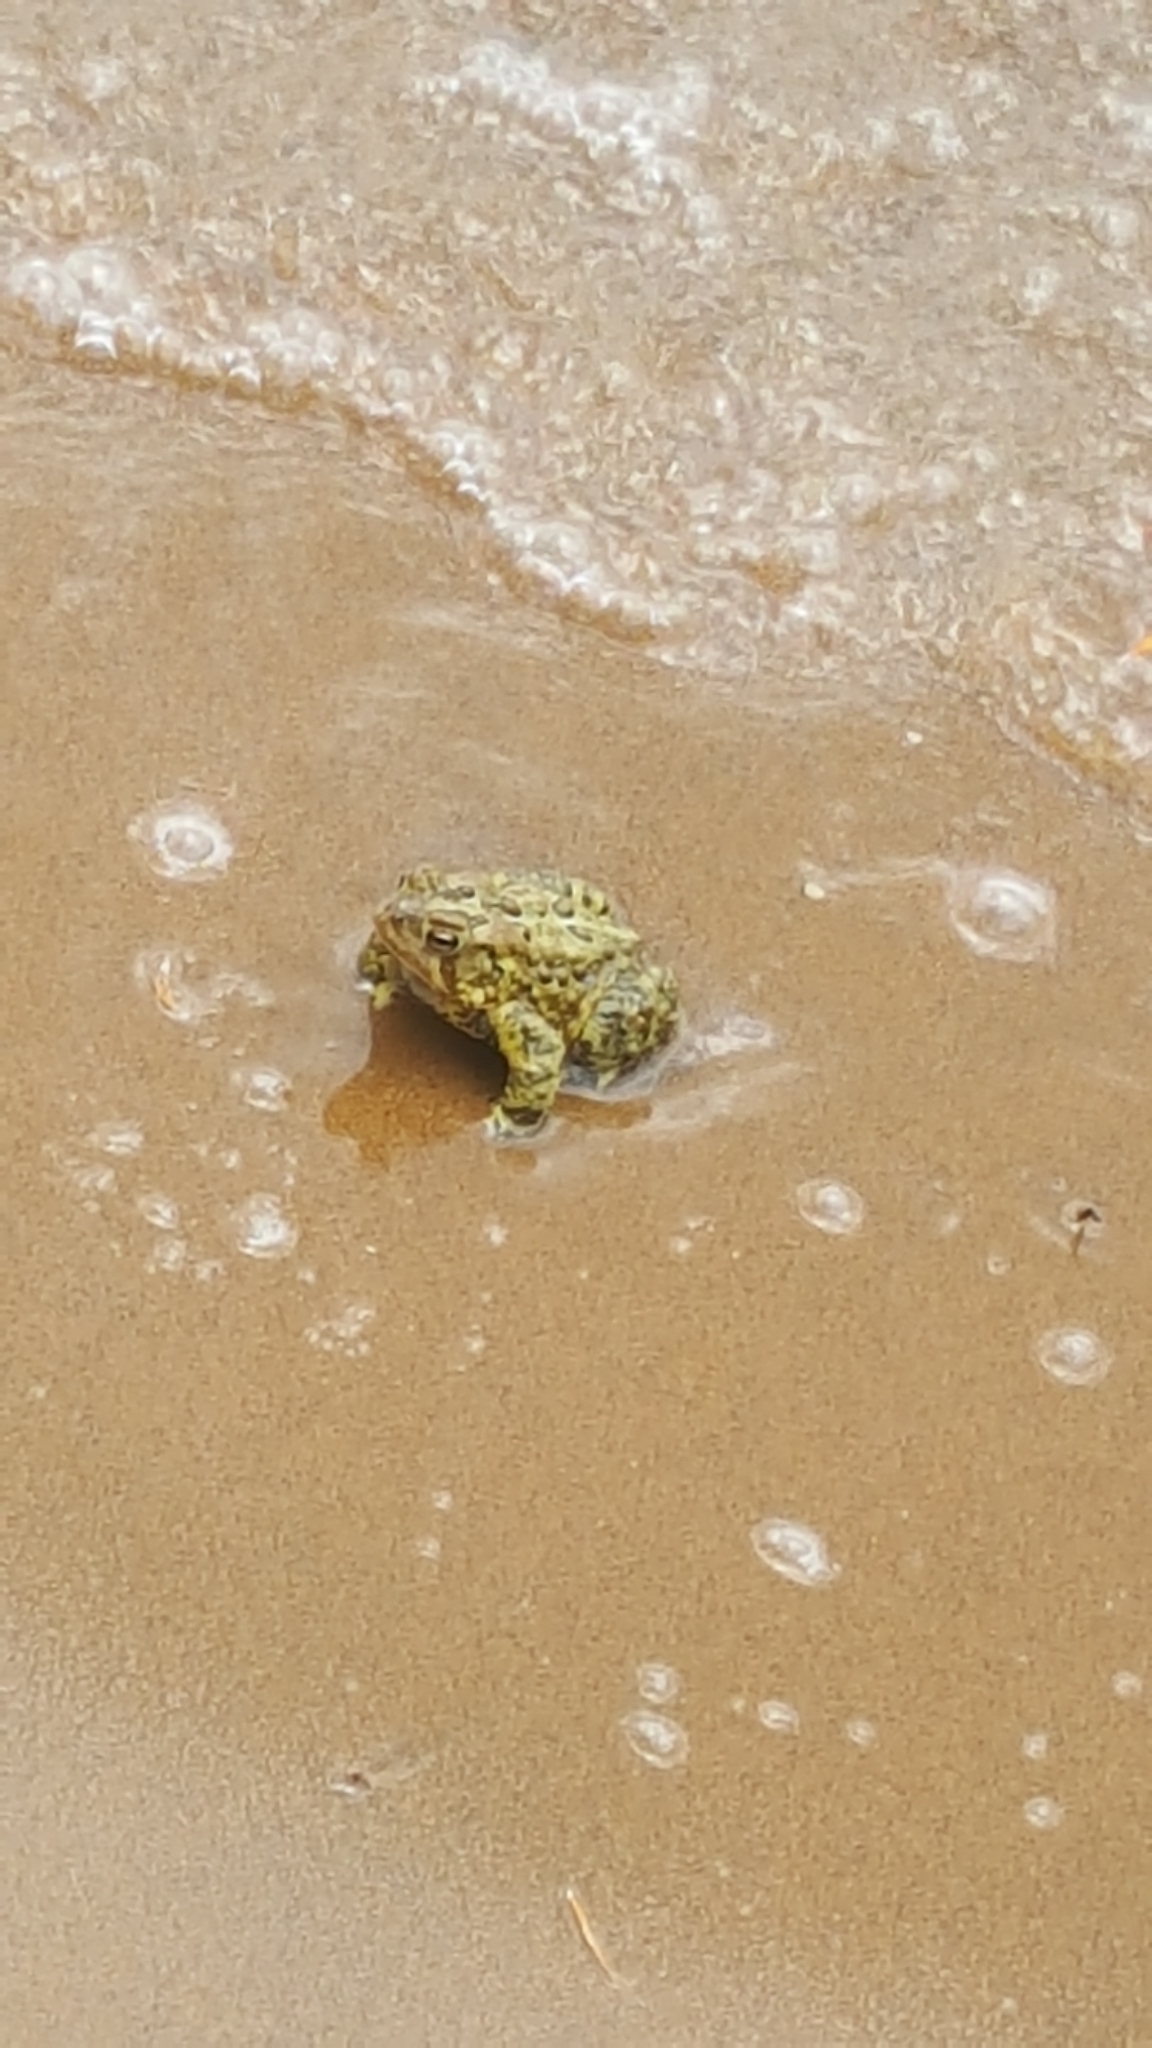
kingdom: Animalia
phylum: Chordata
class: Amphibia
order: Anura
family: Bufonidae
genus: Anaxyrus
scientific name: Anaxyrus americanus
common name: American toad
